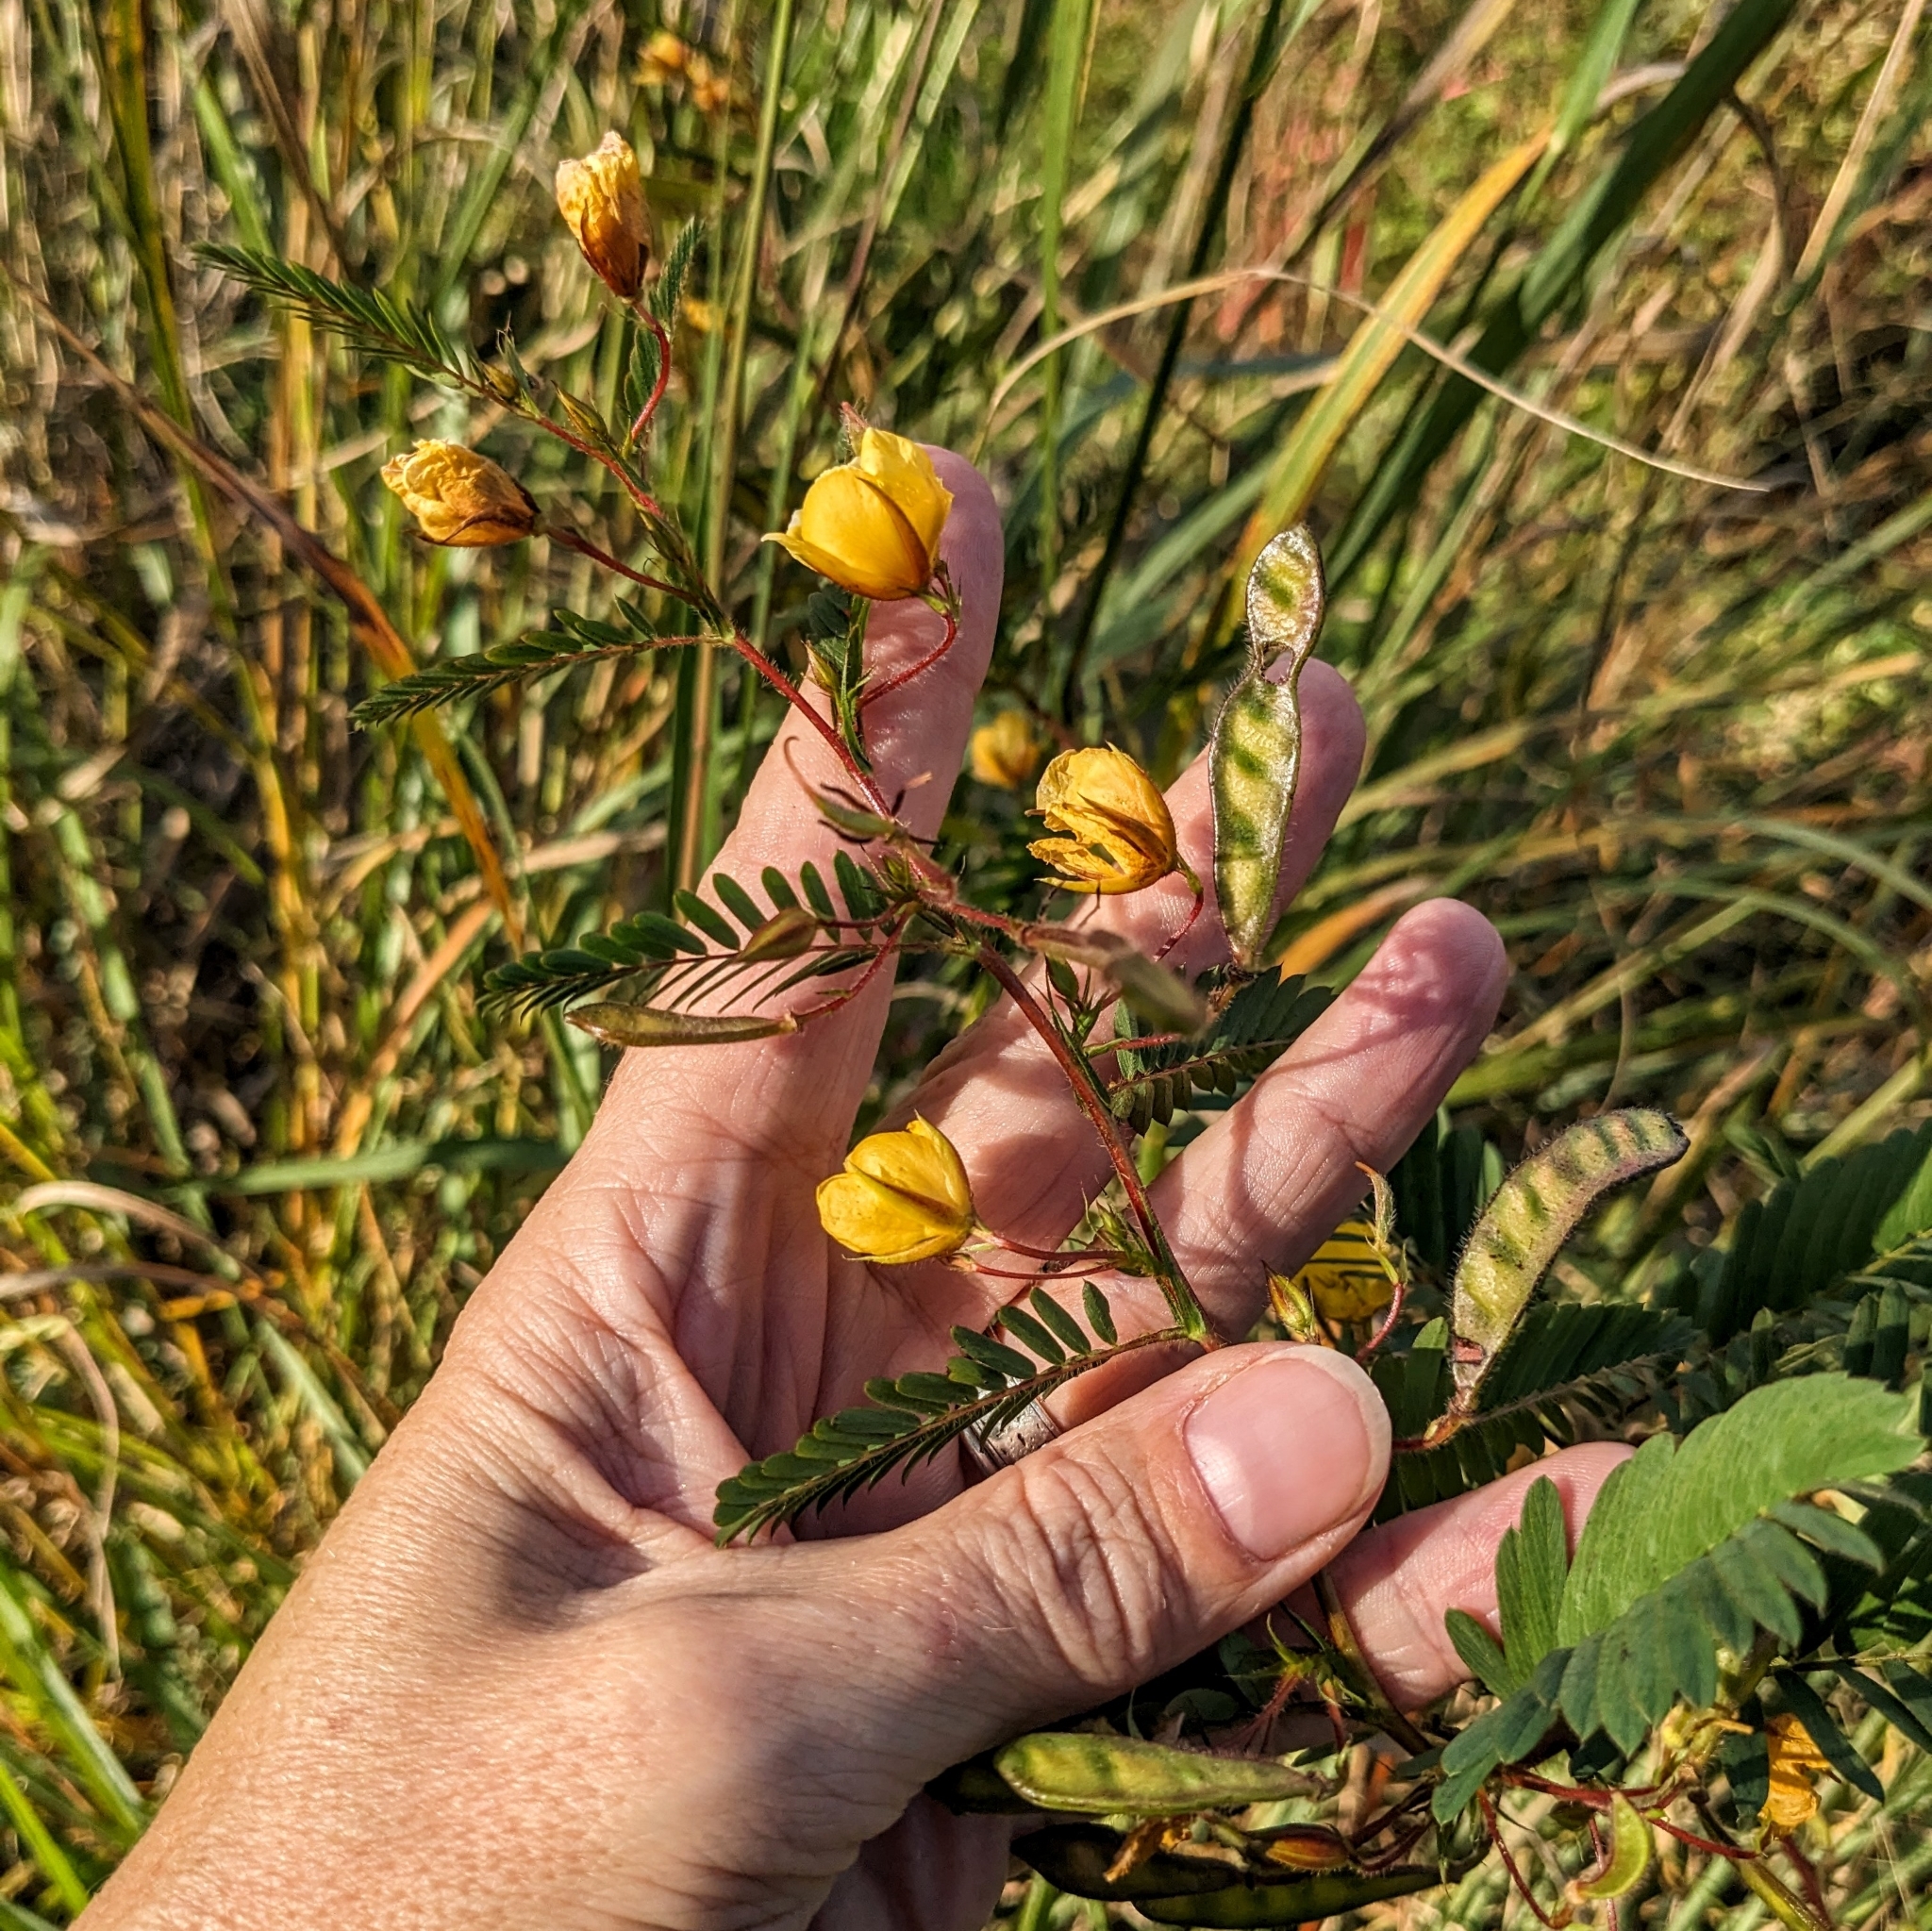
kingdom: Plantae
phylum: Tracheophyta
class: Magnoliopsida
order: Fabales
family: Fabaceae
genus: Chamaecrista
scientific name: Chamaecrista fasciculata
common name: Golden cassia
